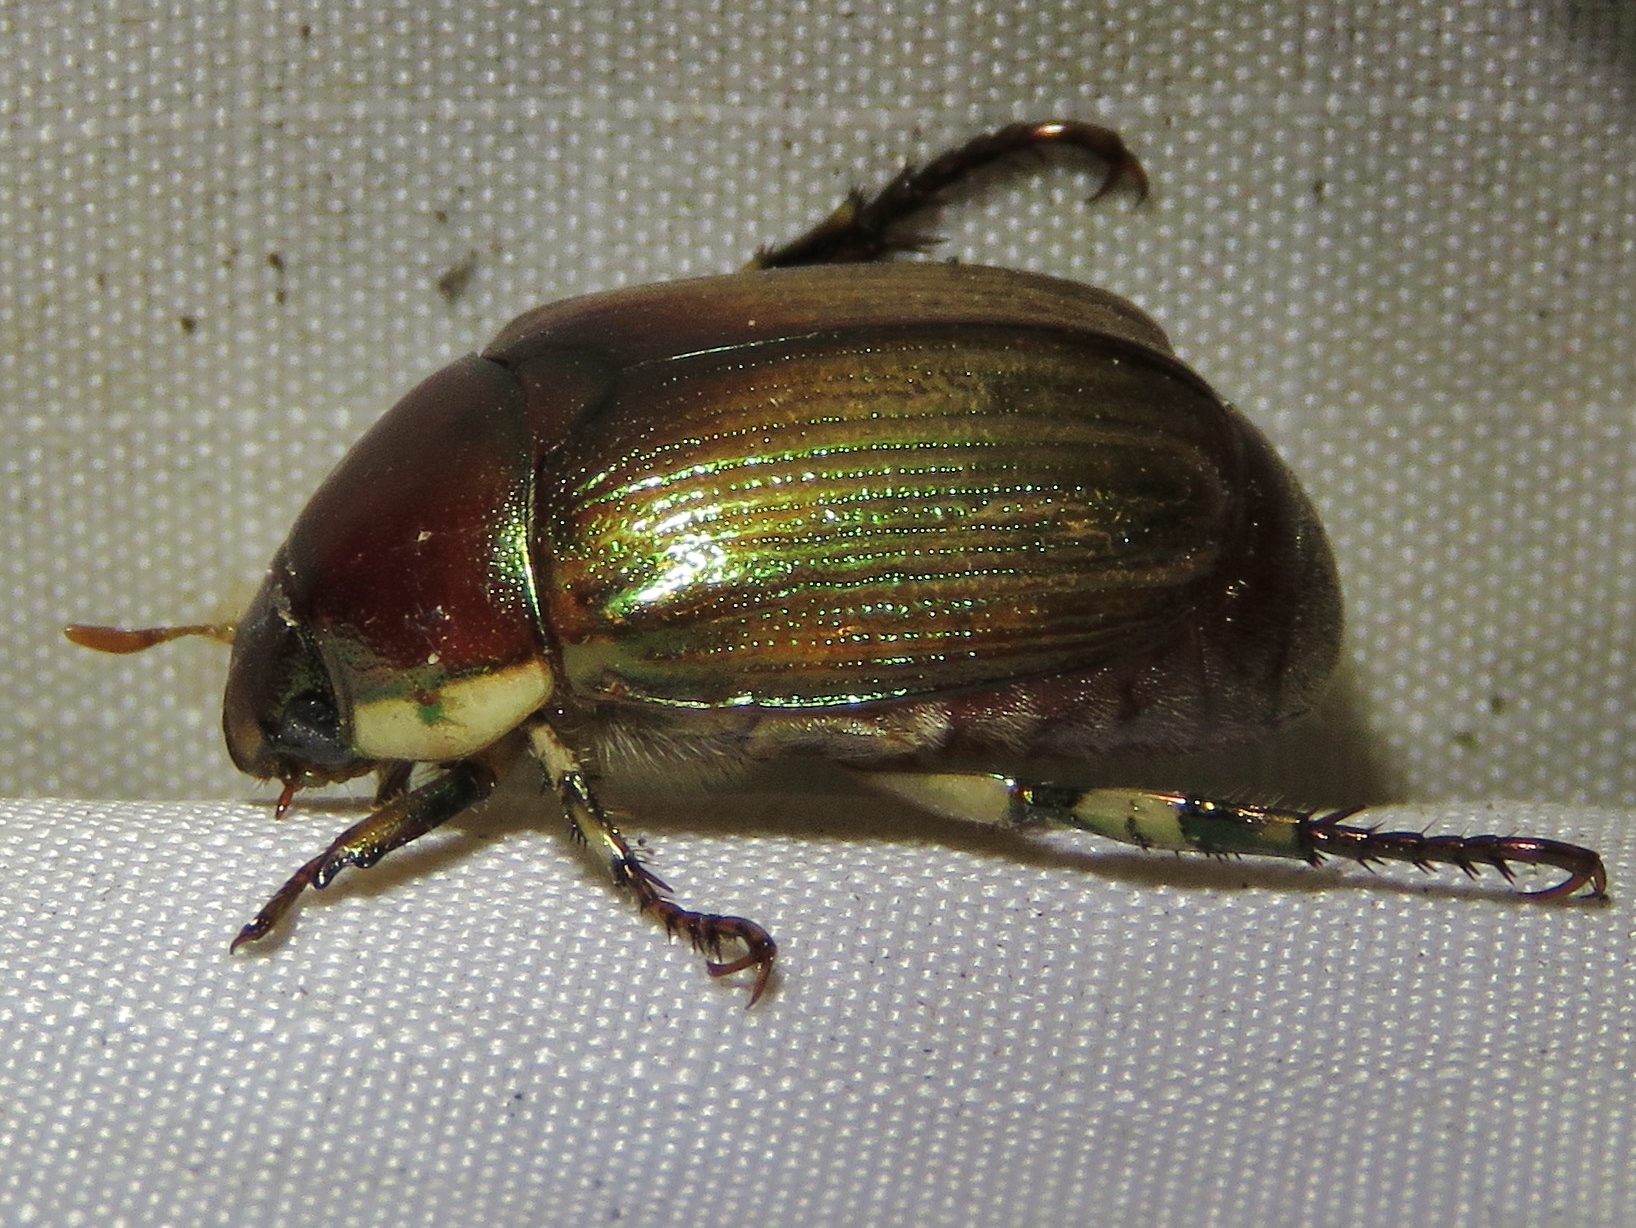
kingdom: Animalia
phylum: Arthropoda
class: Insecta
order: Coleoptera
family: Scarabaeidae
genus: Callistethus
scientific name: Callistethus marginatus
